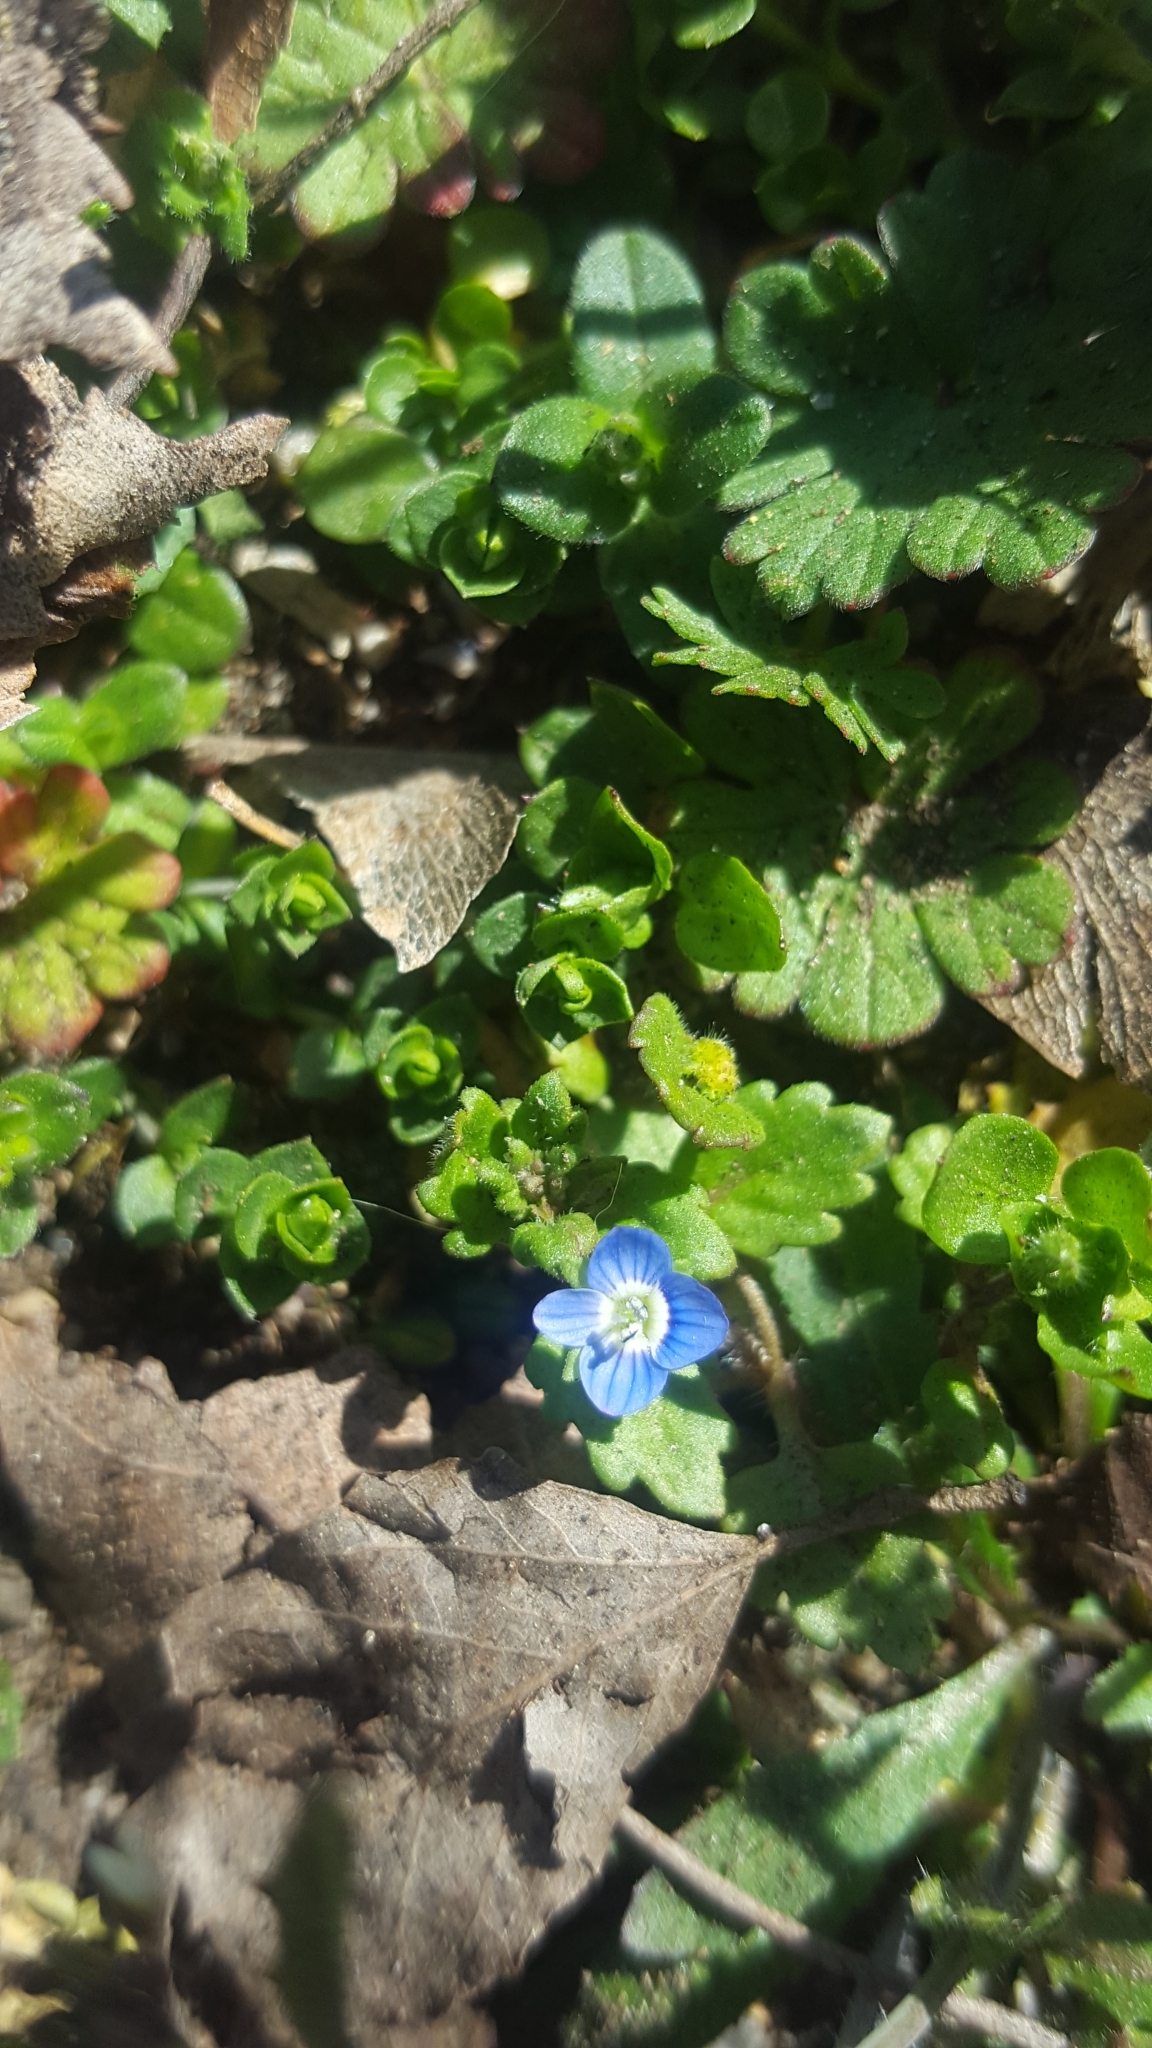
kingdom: Plantae
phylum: Tracheophyta
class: Magnoliopsida
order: Lamiales
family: Plantaginaceae
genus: Veronica
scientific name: Veronica polita
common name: Grey field-speedwell
